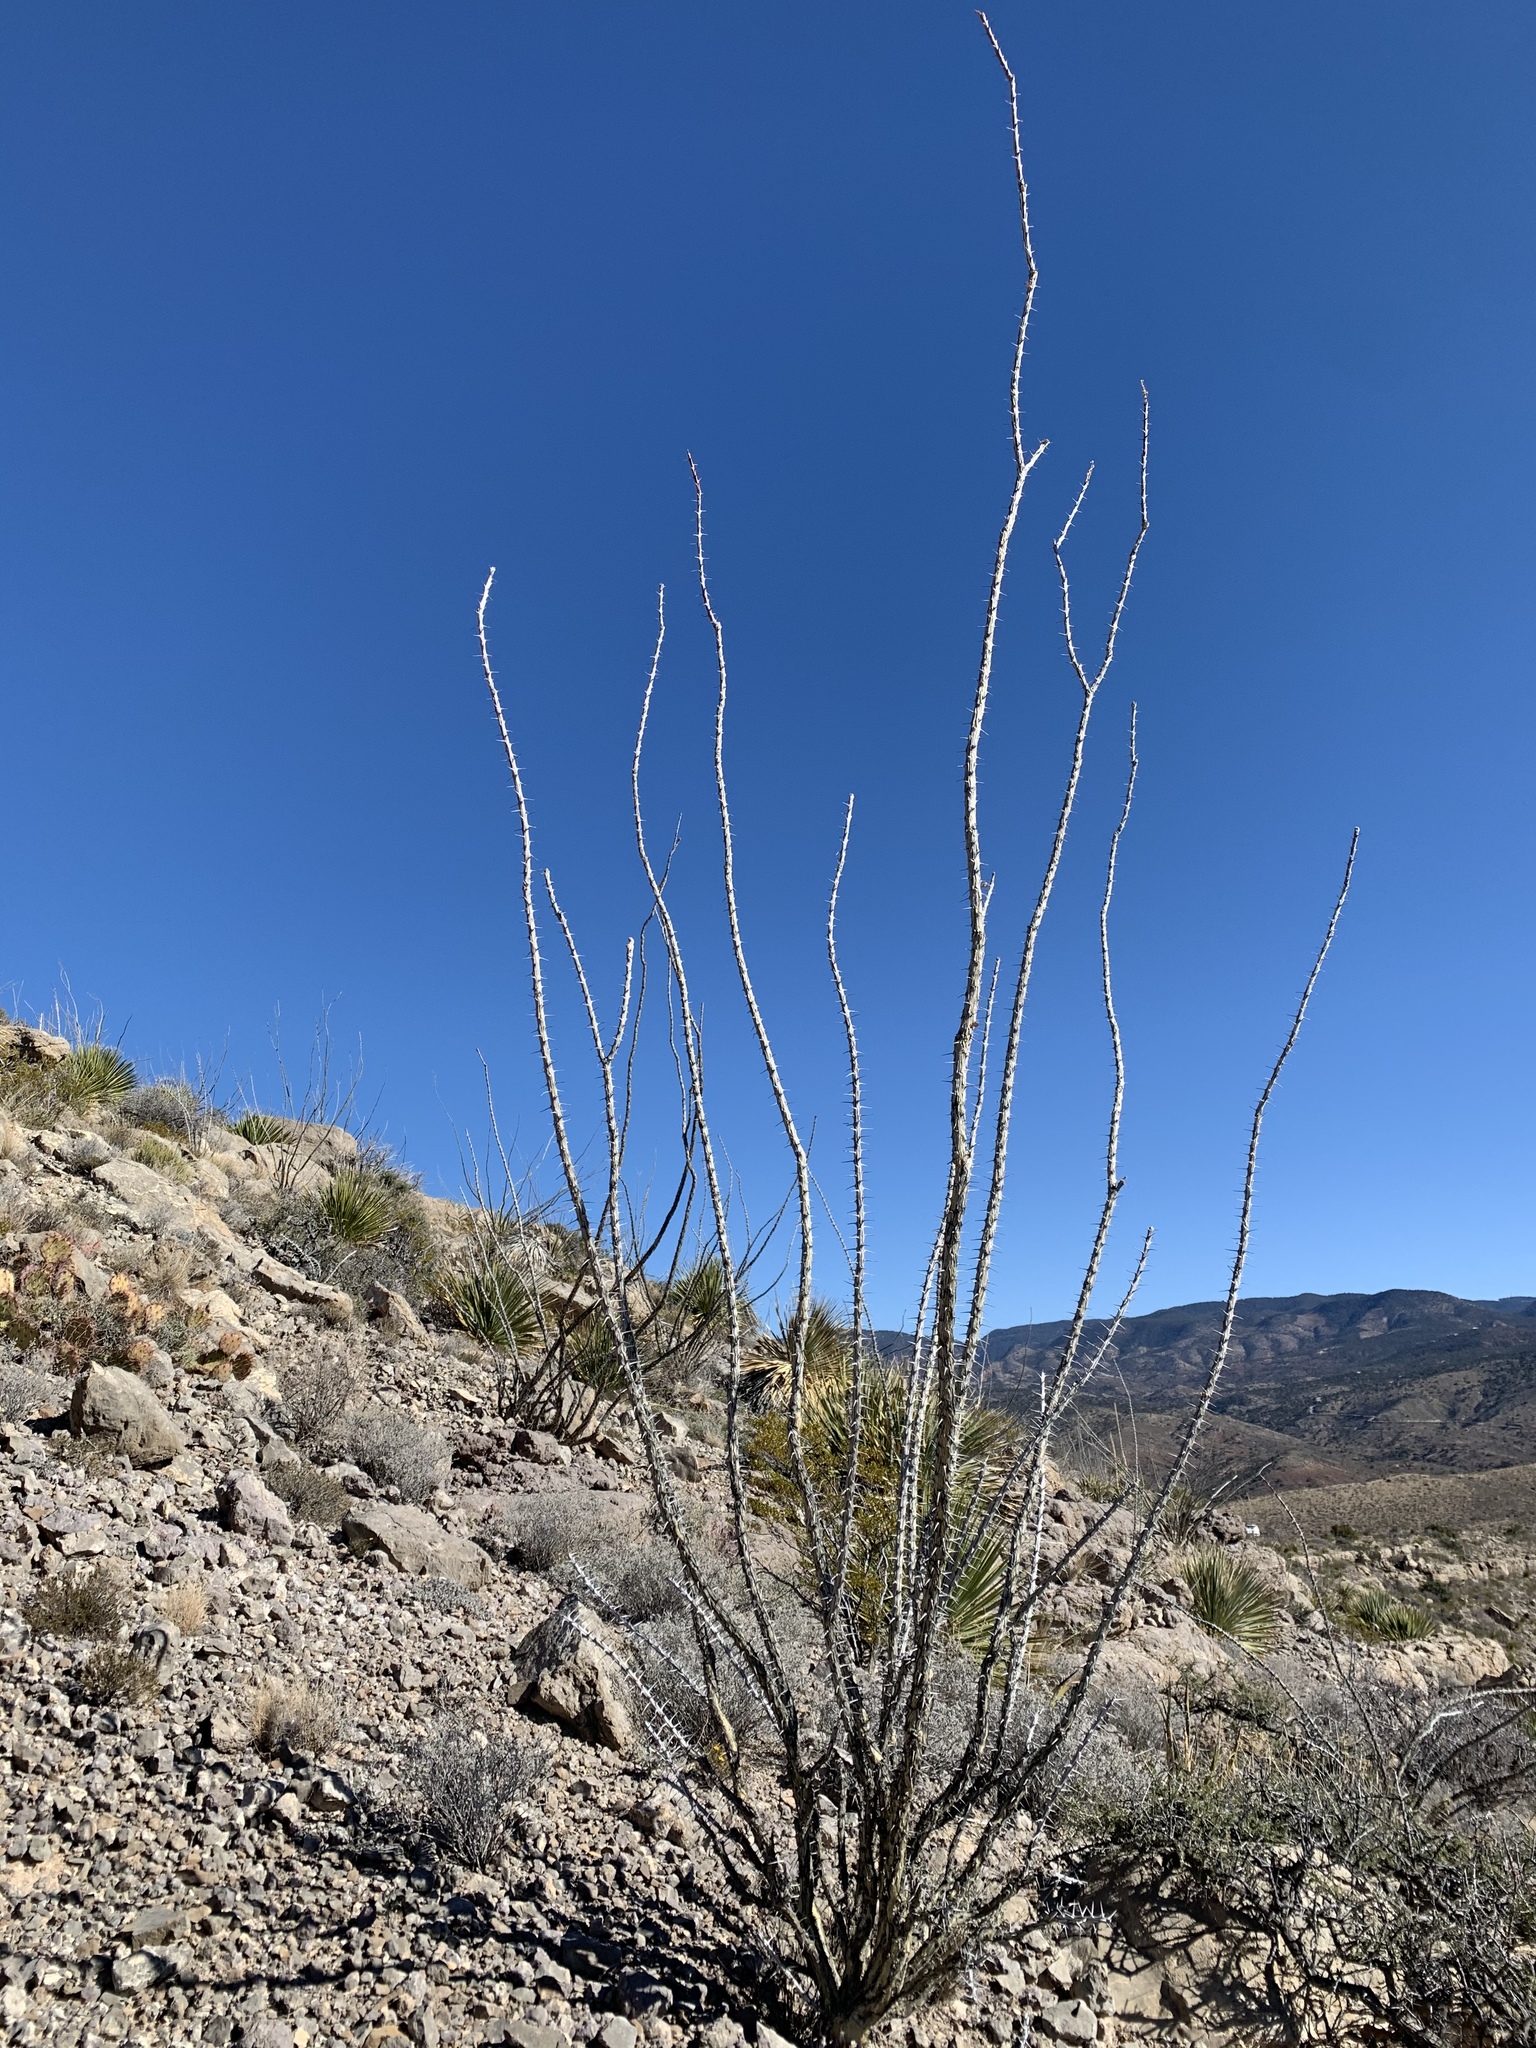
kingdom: Plantae
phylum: Tracheophyta
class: Magnoliopsida
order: Ericales
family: Fouquieriaceae
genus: Fouquieria
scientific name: Fouquieria splendens
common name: Vine-cactus
